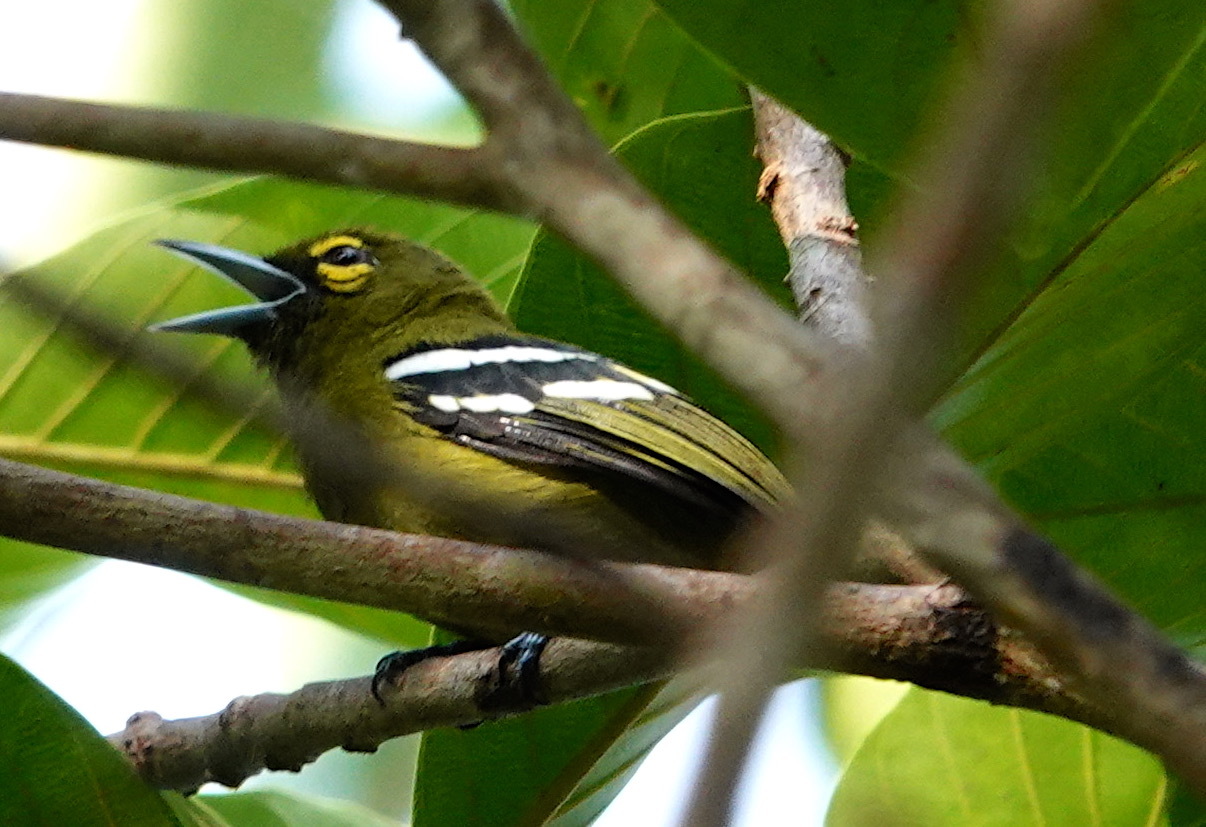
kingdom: Animalia
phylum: Chordata
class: Aves
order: Passeriformes
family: Aegithinidae
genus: Aegithina
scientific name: Aegithina viridissima
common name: Green iora
